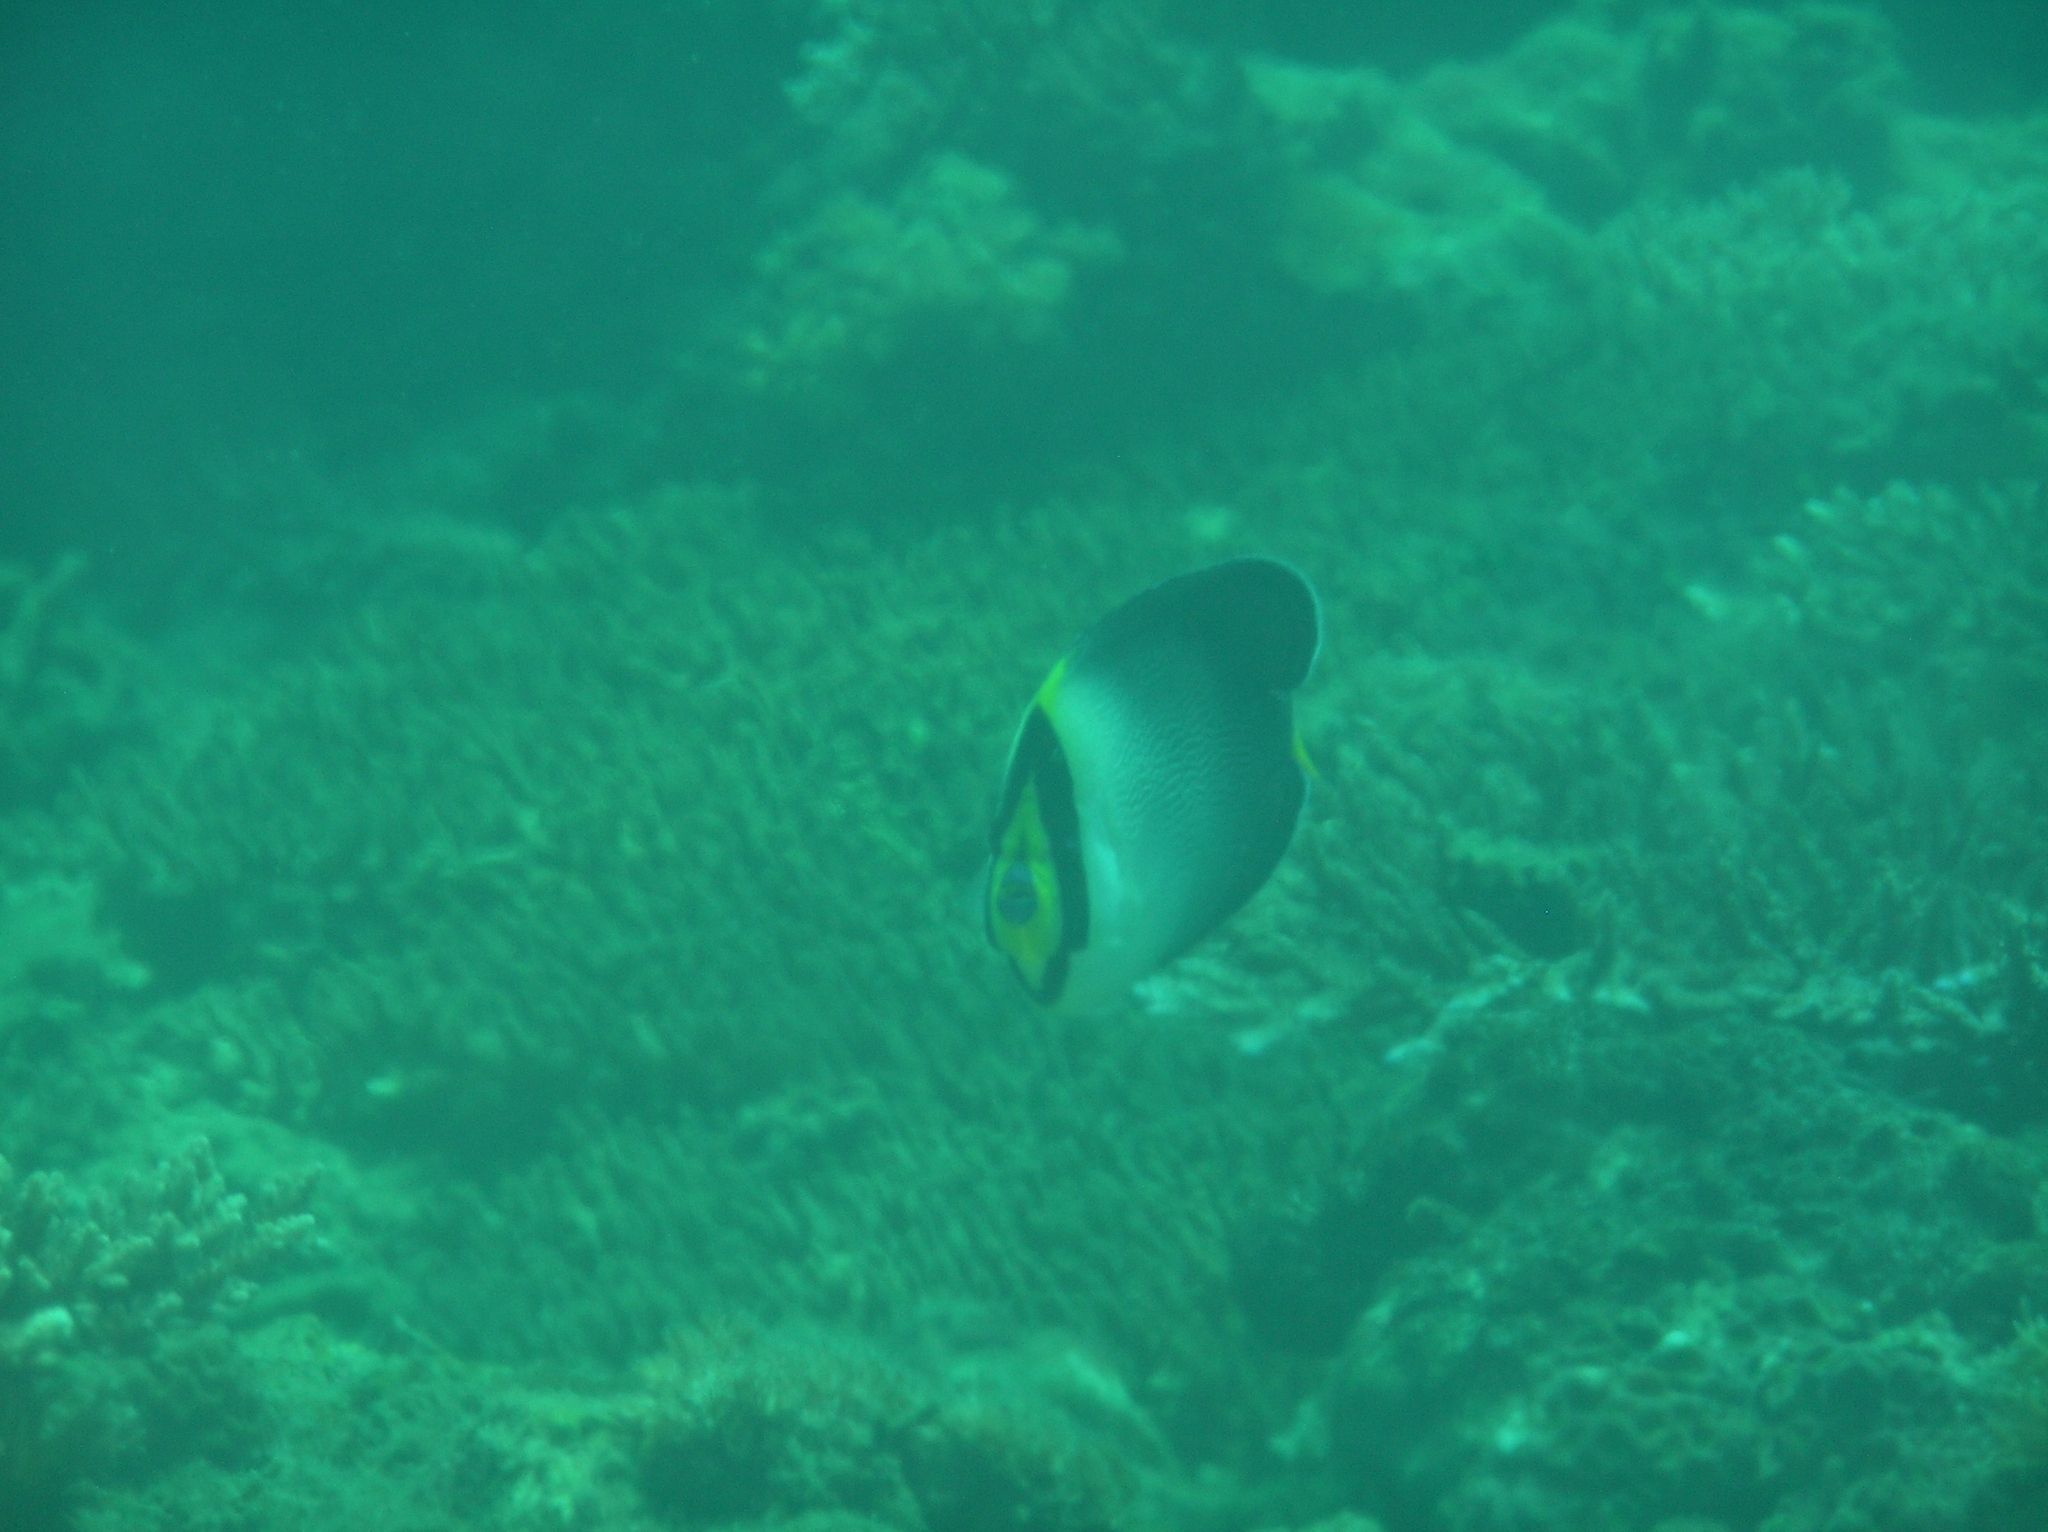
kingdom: Animalia
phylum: Chordata
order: Perciformes
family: Pomacanthidae
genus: Chaetodontoplus
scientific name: Chaetodontoplus mesoleucus
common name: Vermiculated angelfish
